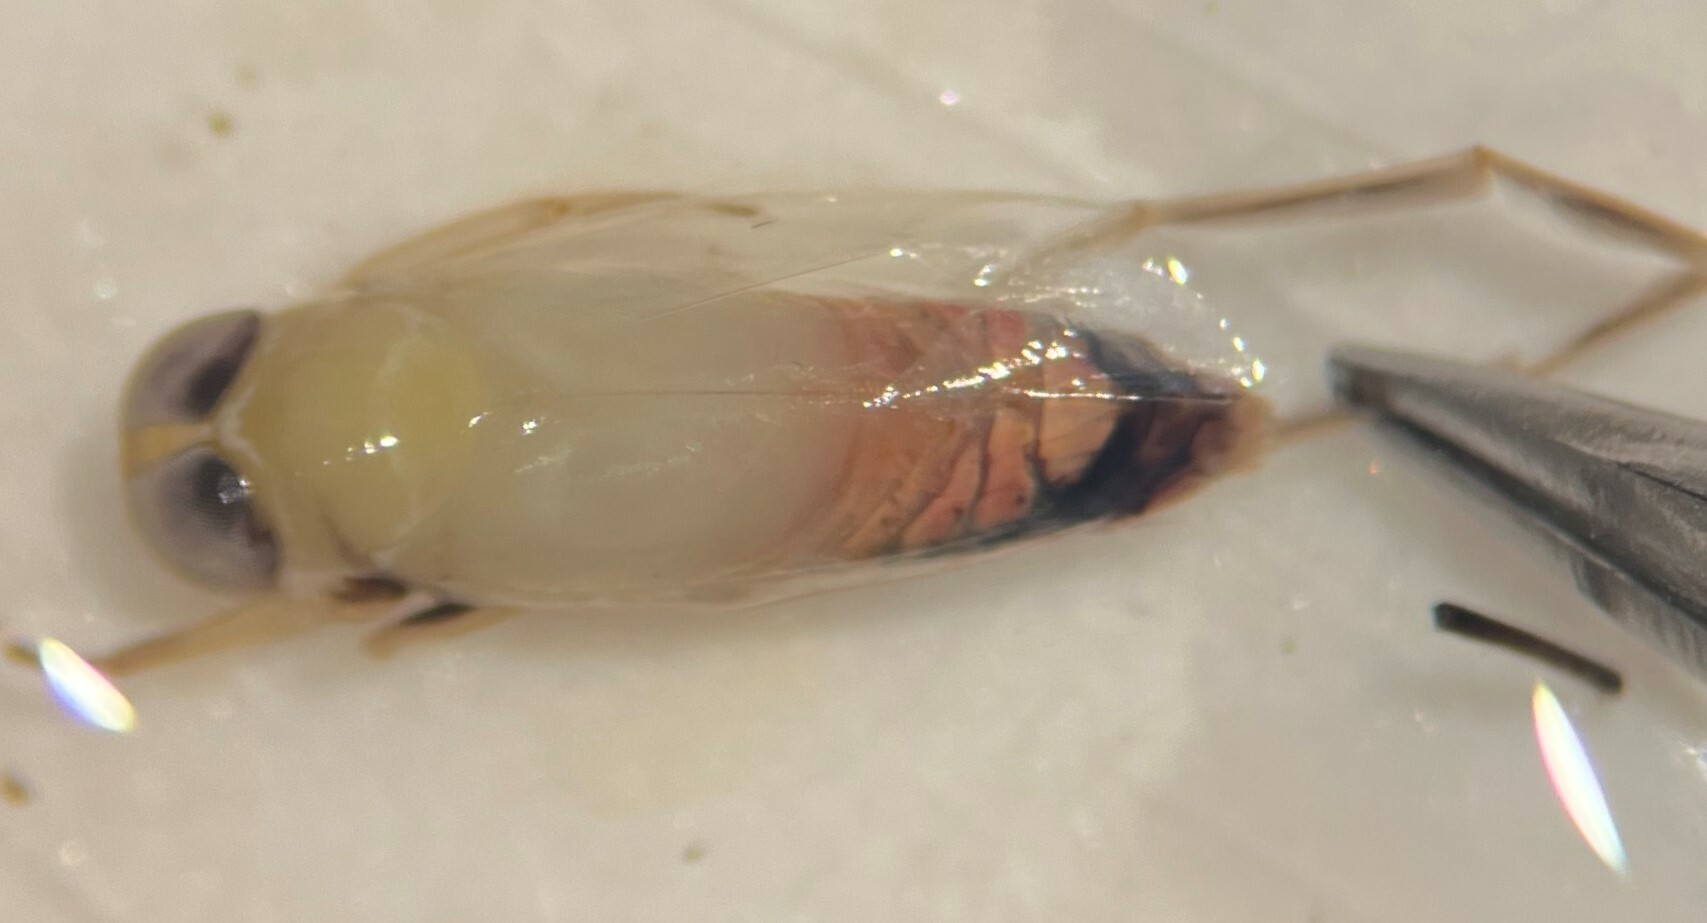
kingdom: Animalia
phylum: Arthropoda
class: Insecta
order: Hemiptera
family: Notonectidae
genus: Buenoa
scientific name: Buenoa scimitra
